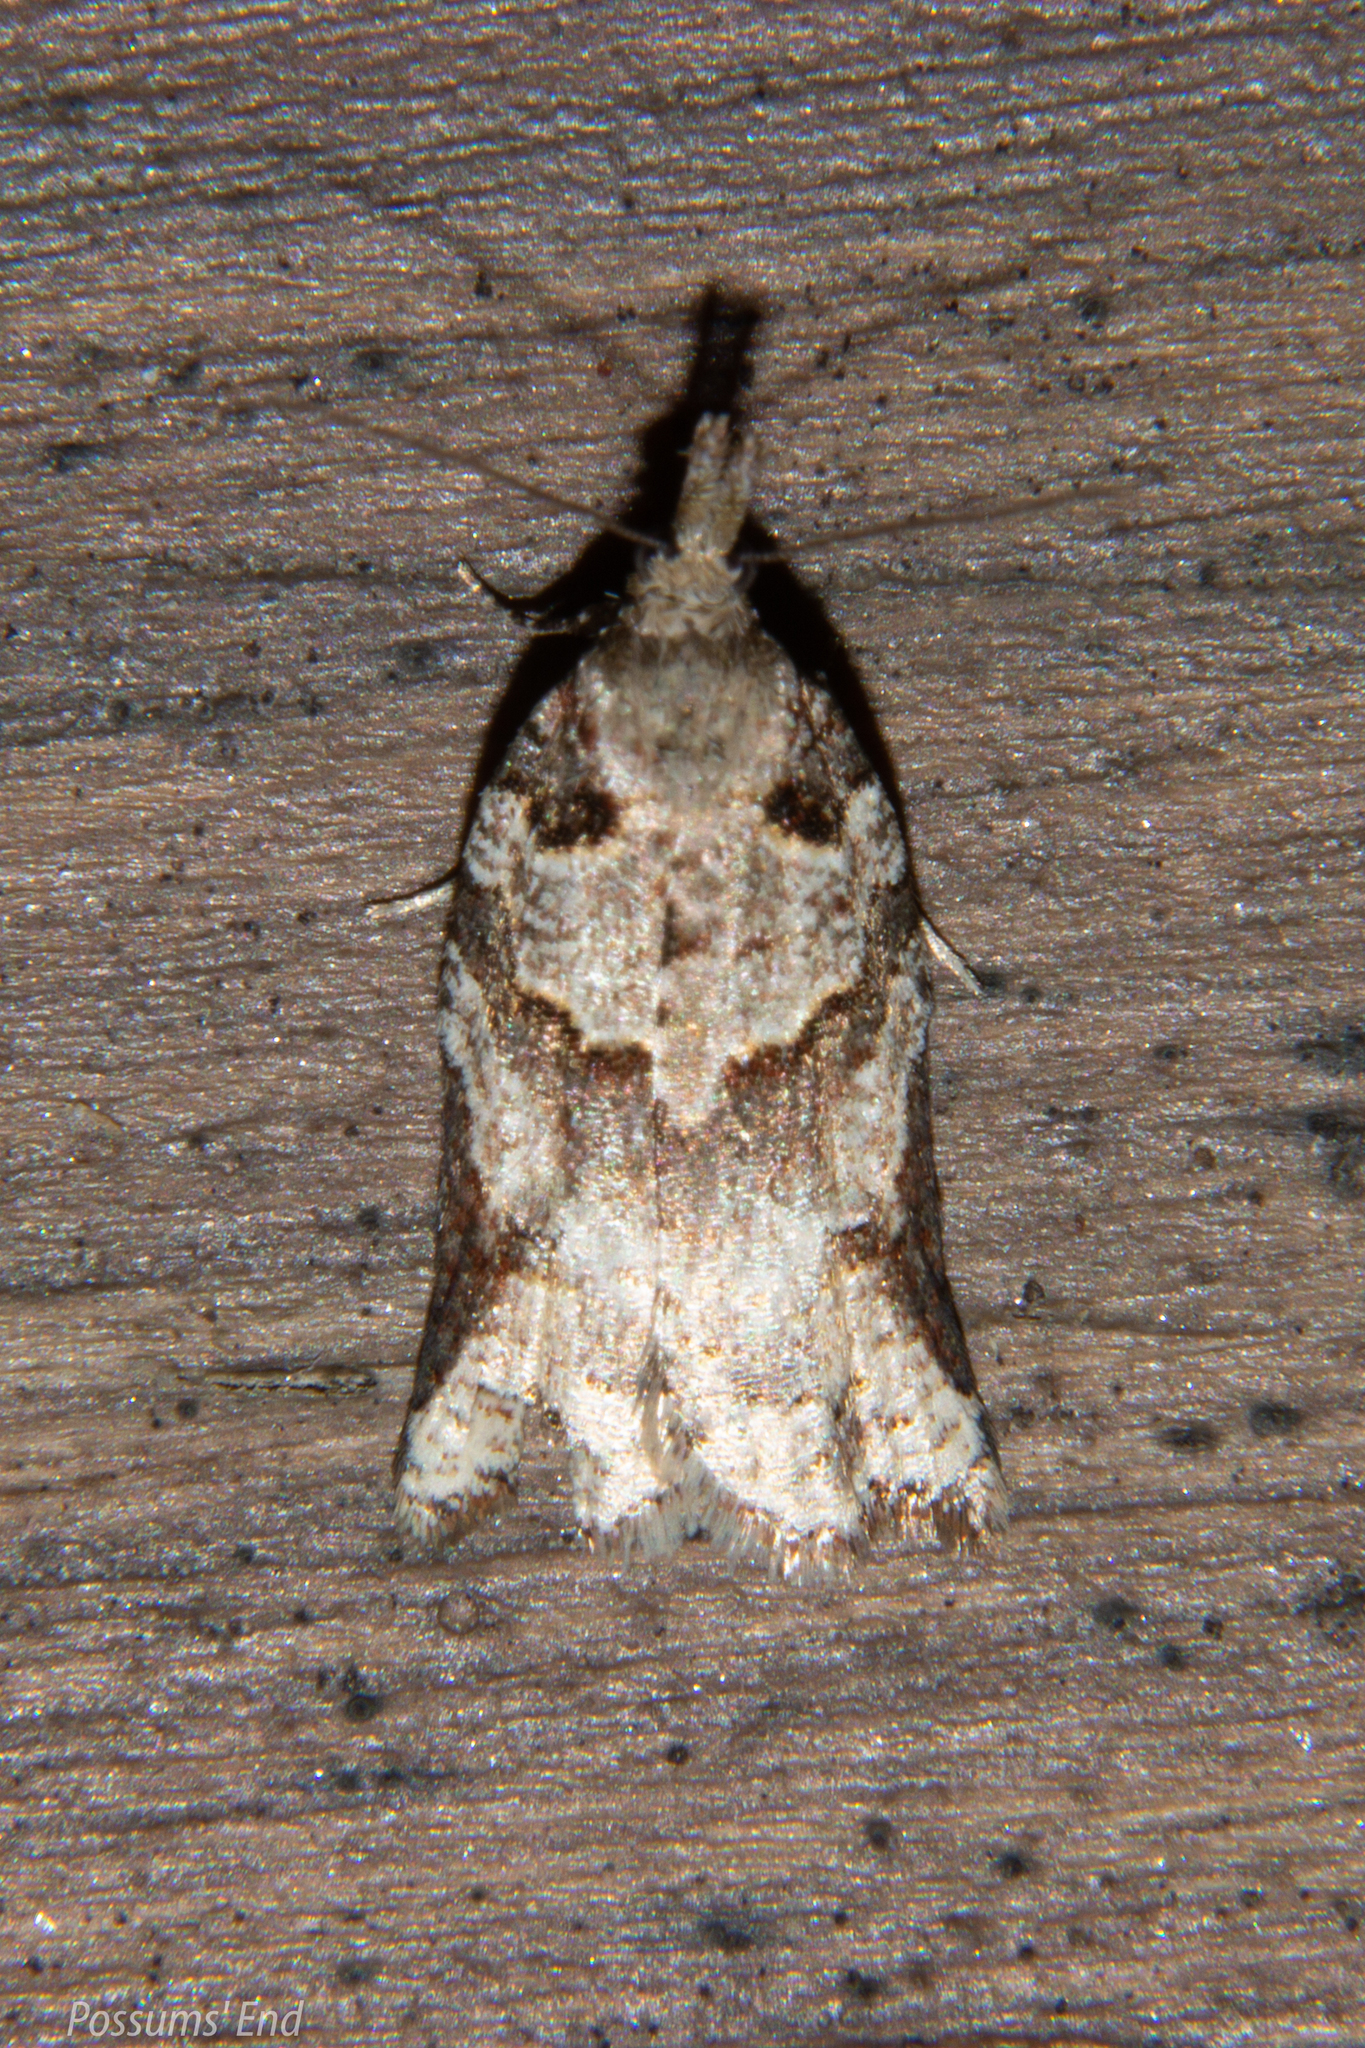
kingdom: Animalia
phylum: Arthropoda
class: Insecta
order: Lepidoptera
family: Tortricidae
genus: Harmologa
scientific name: Harmologa amplexana
